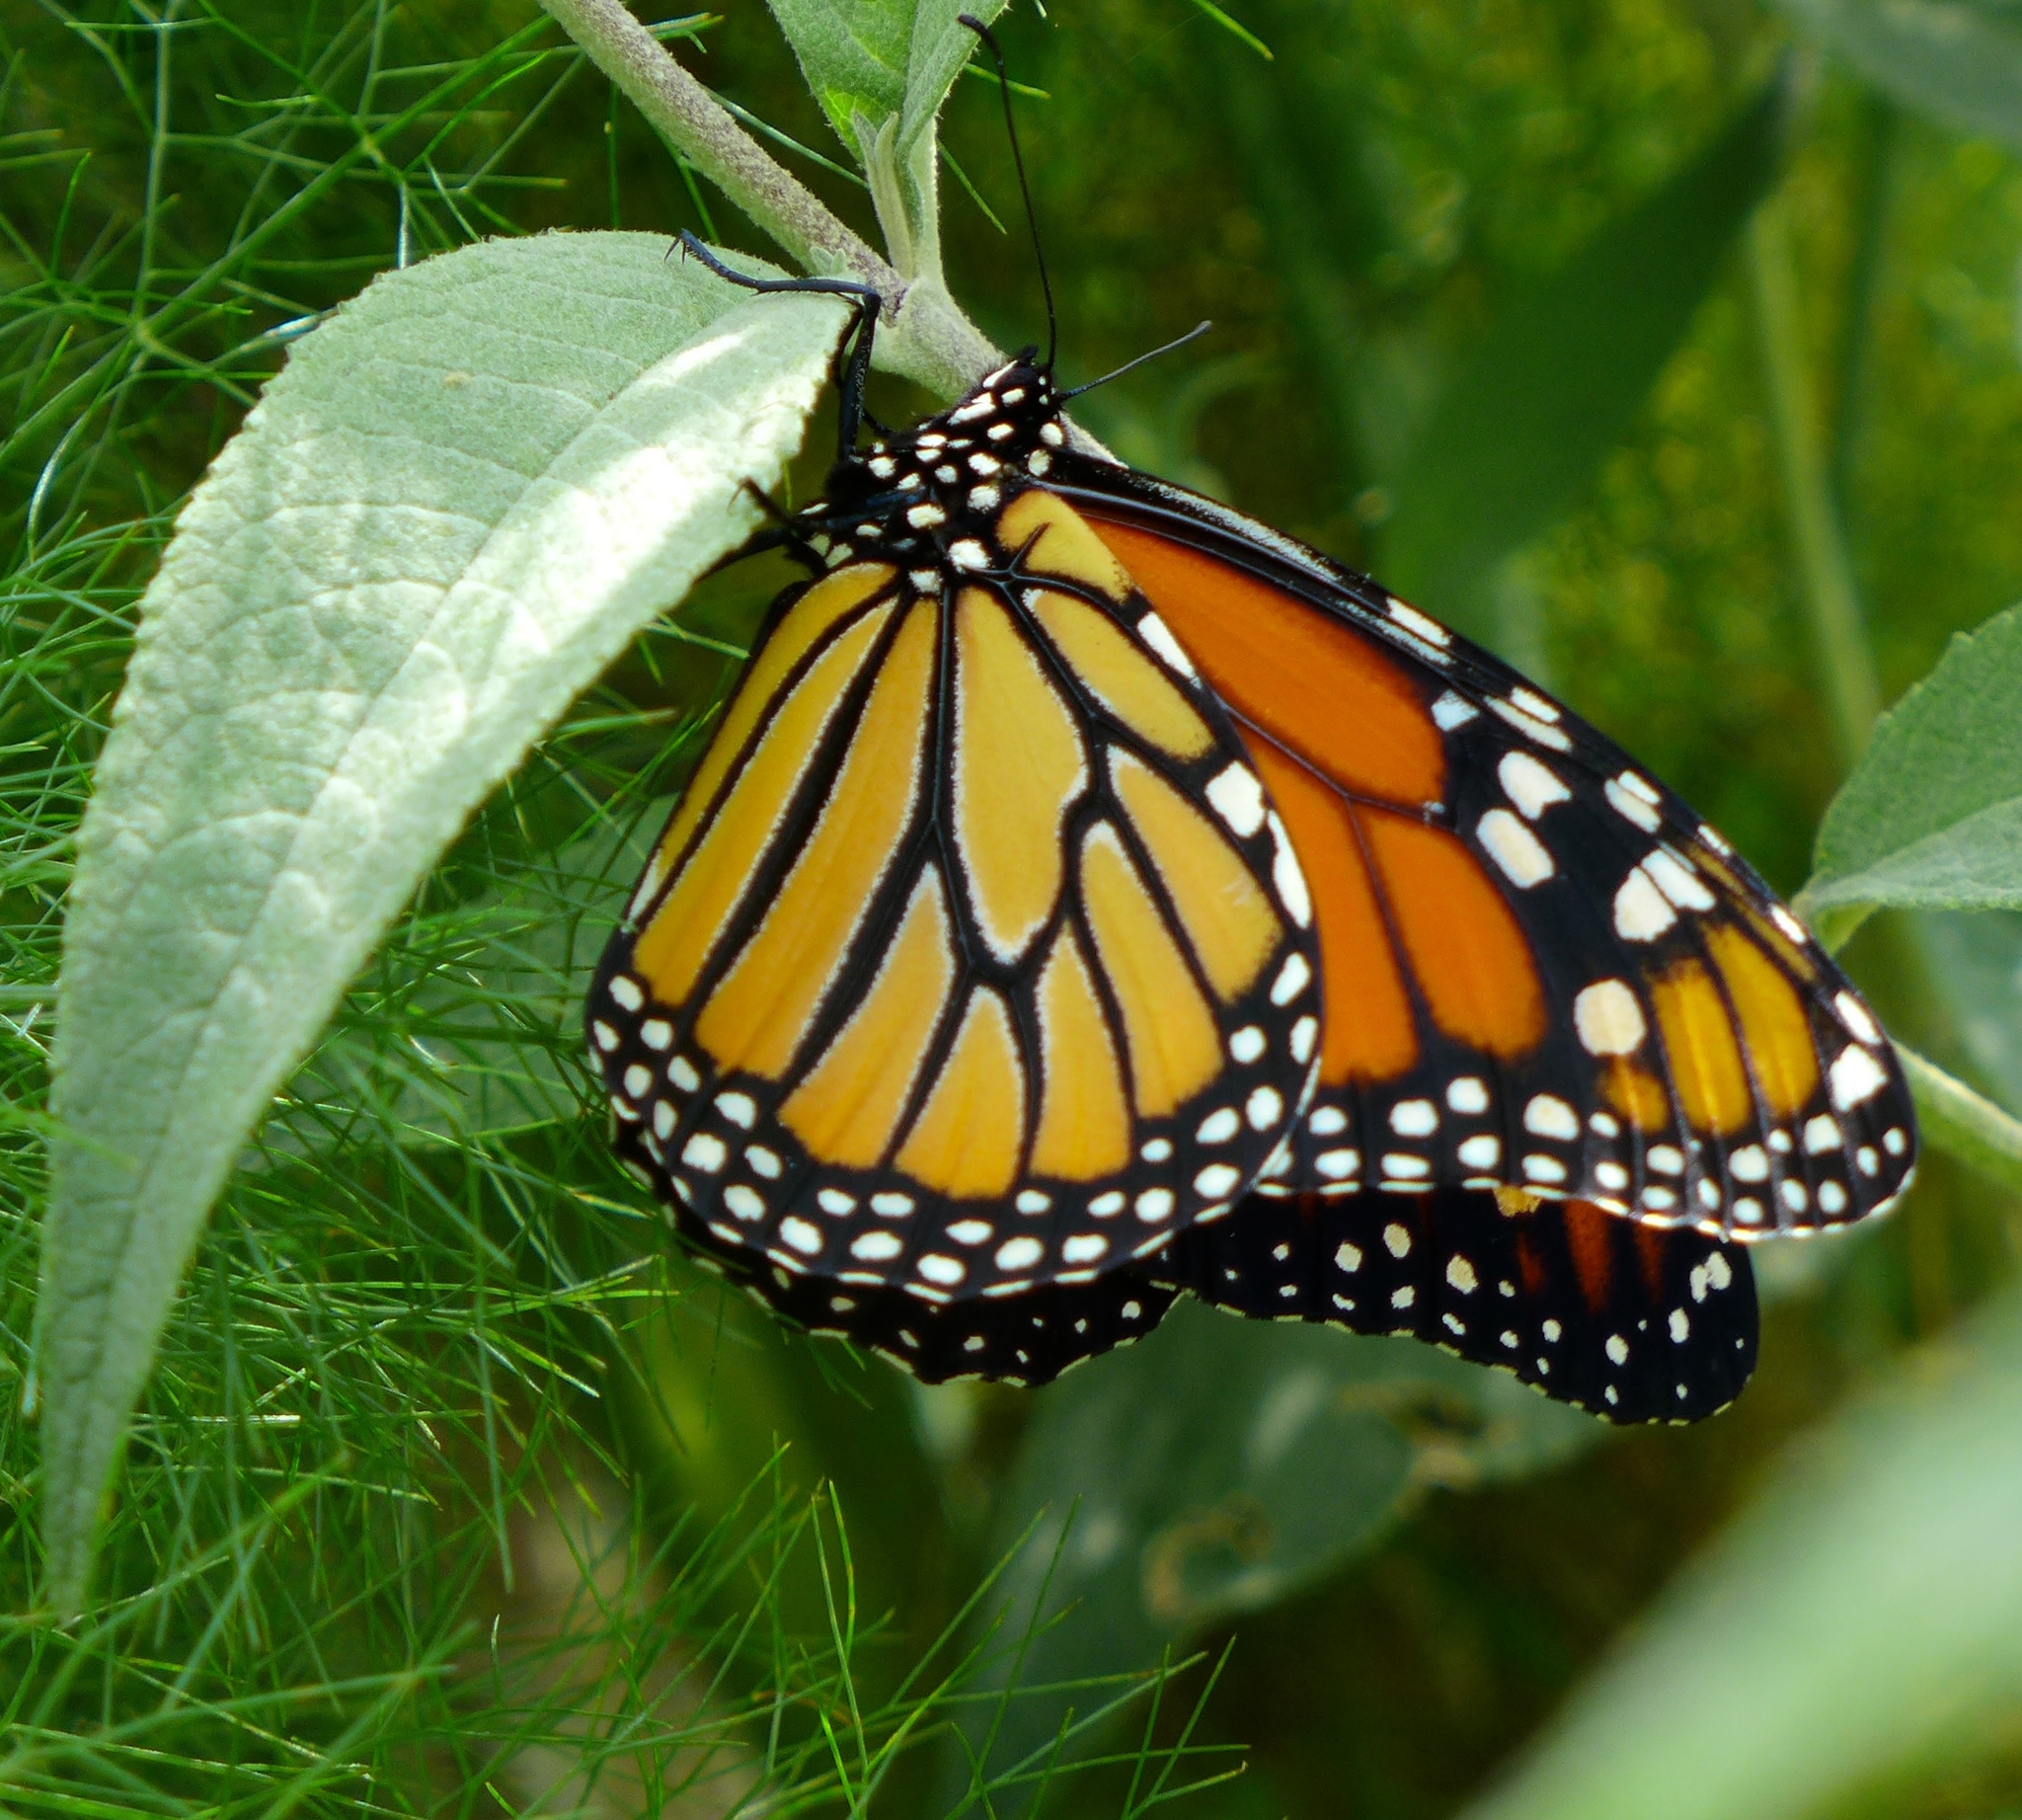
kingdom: Animalia
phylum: Arthropoda
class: Insecta
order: Lepidoptera
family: Nymphalidae
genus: Danaus
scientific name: Danaus plexippus
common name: Monarch
